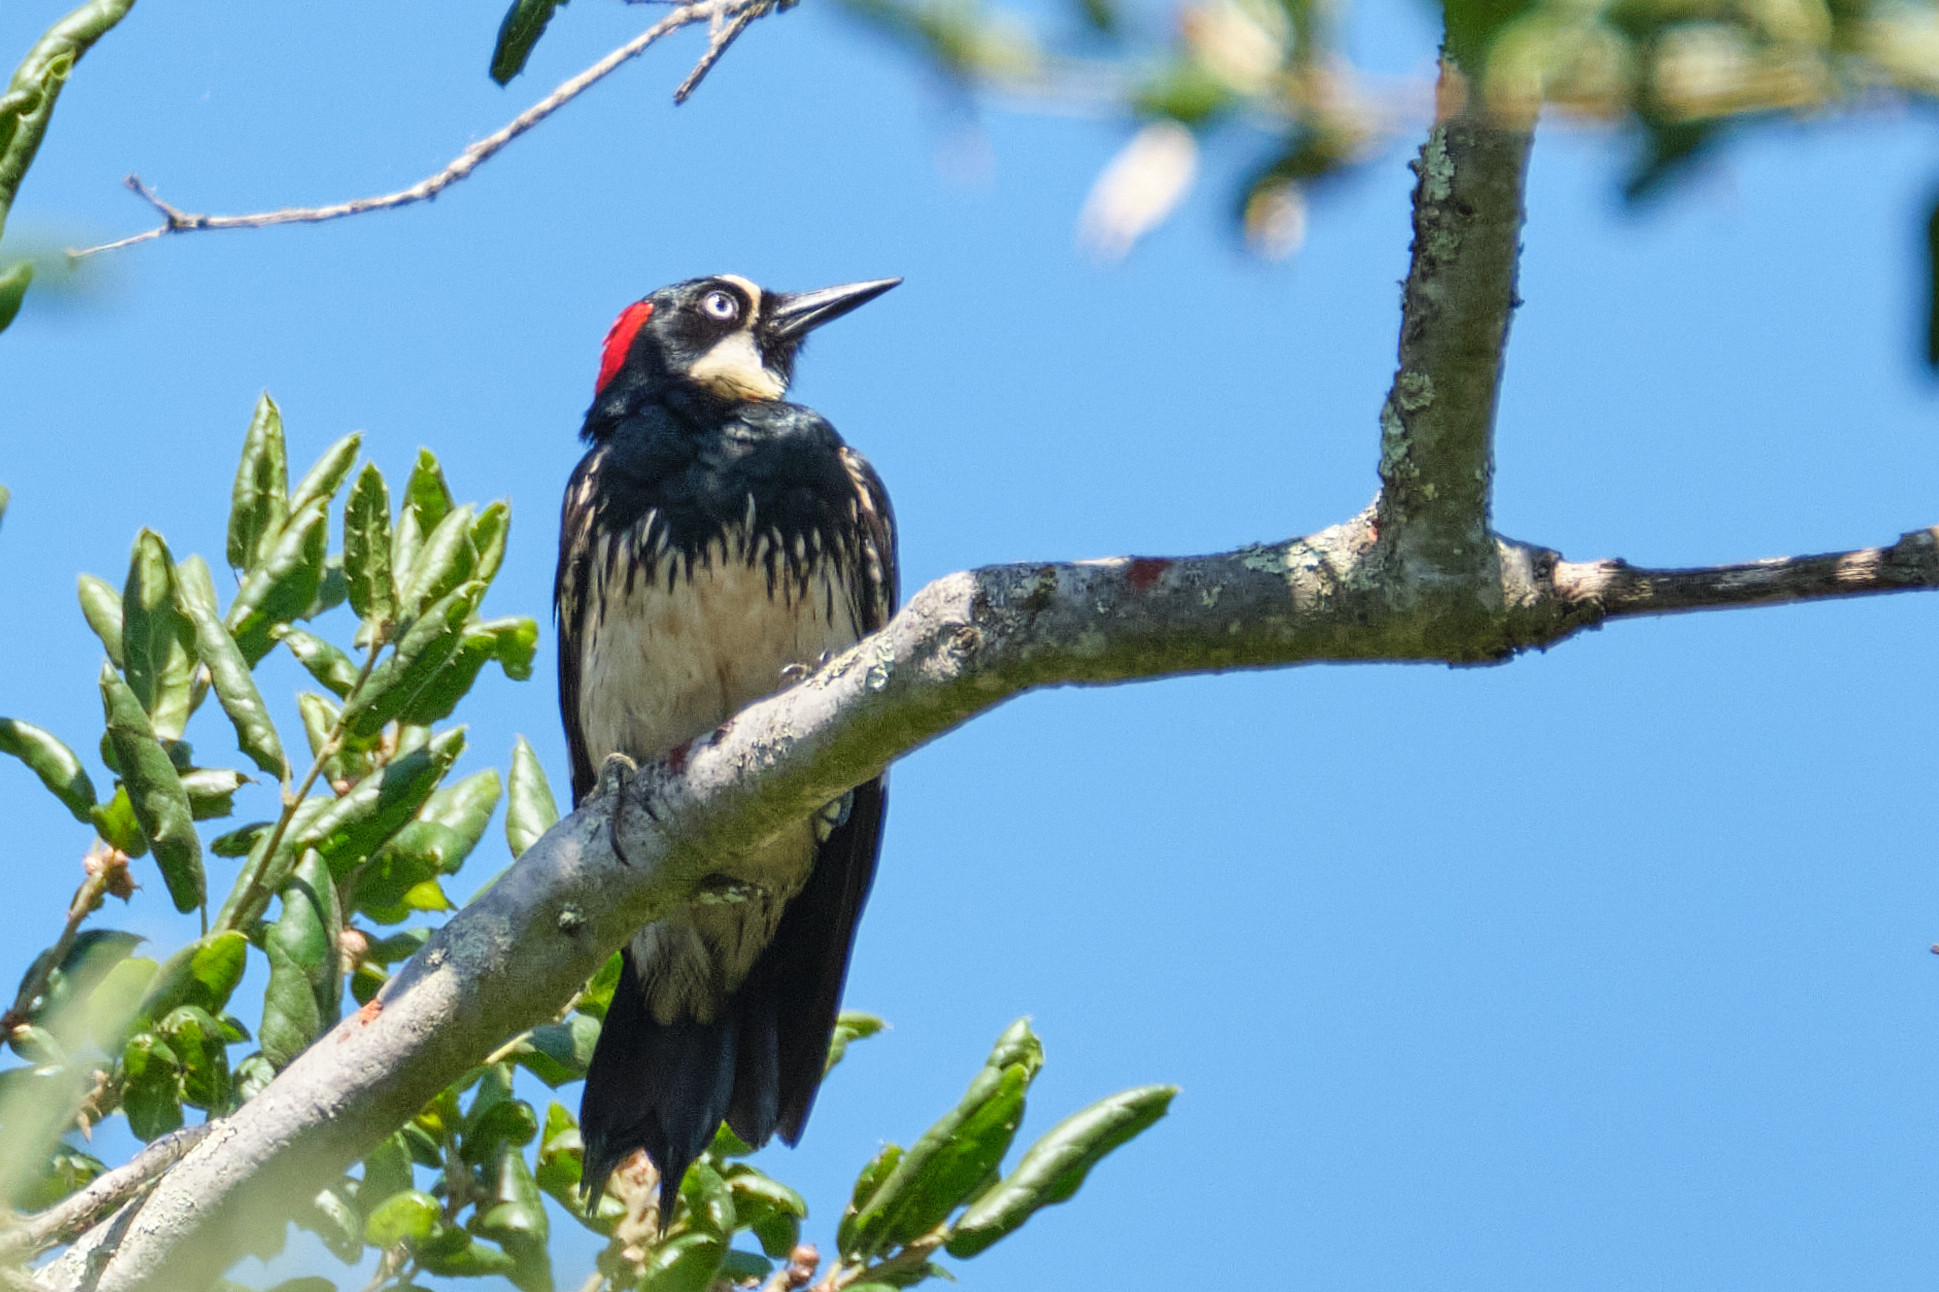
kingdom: Animalia
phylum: Chordata
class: Aves
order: Piciformes
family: Picidae
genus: Melanerpes
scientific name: Melanerpes formicivorus
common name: Acorn woodpecker
